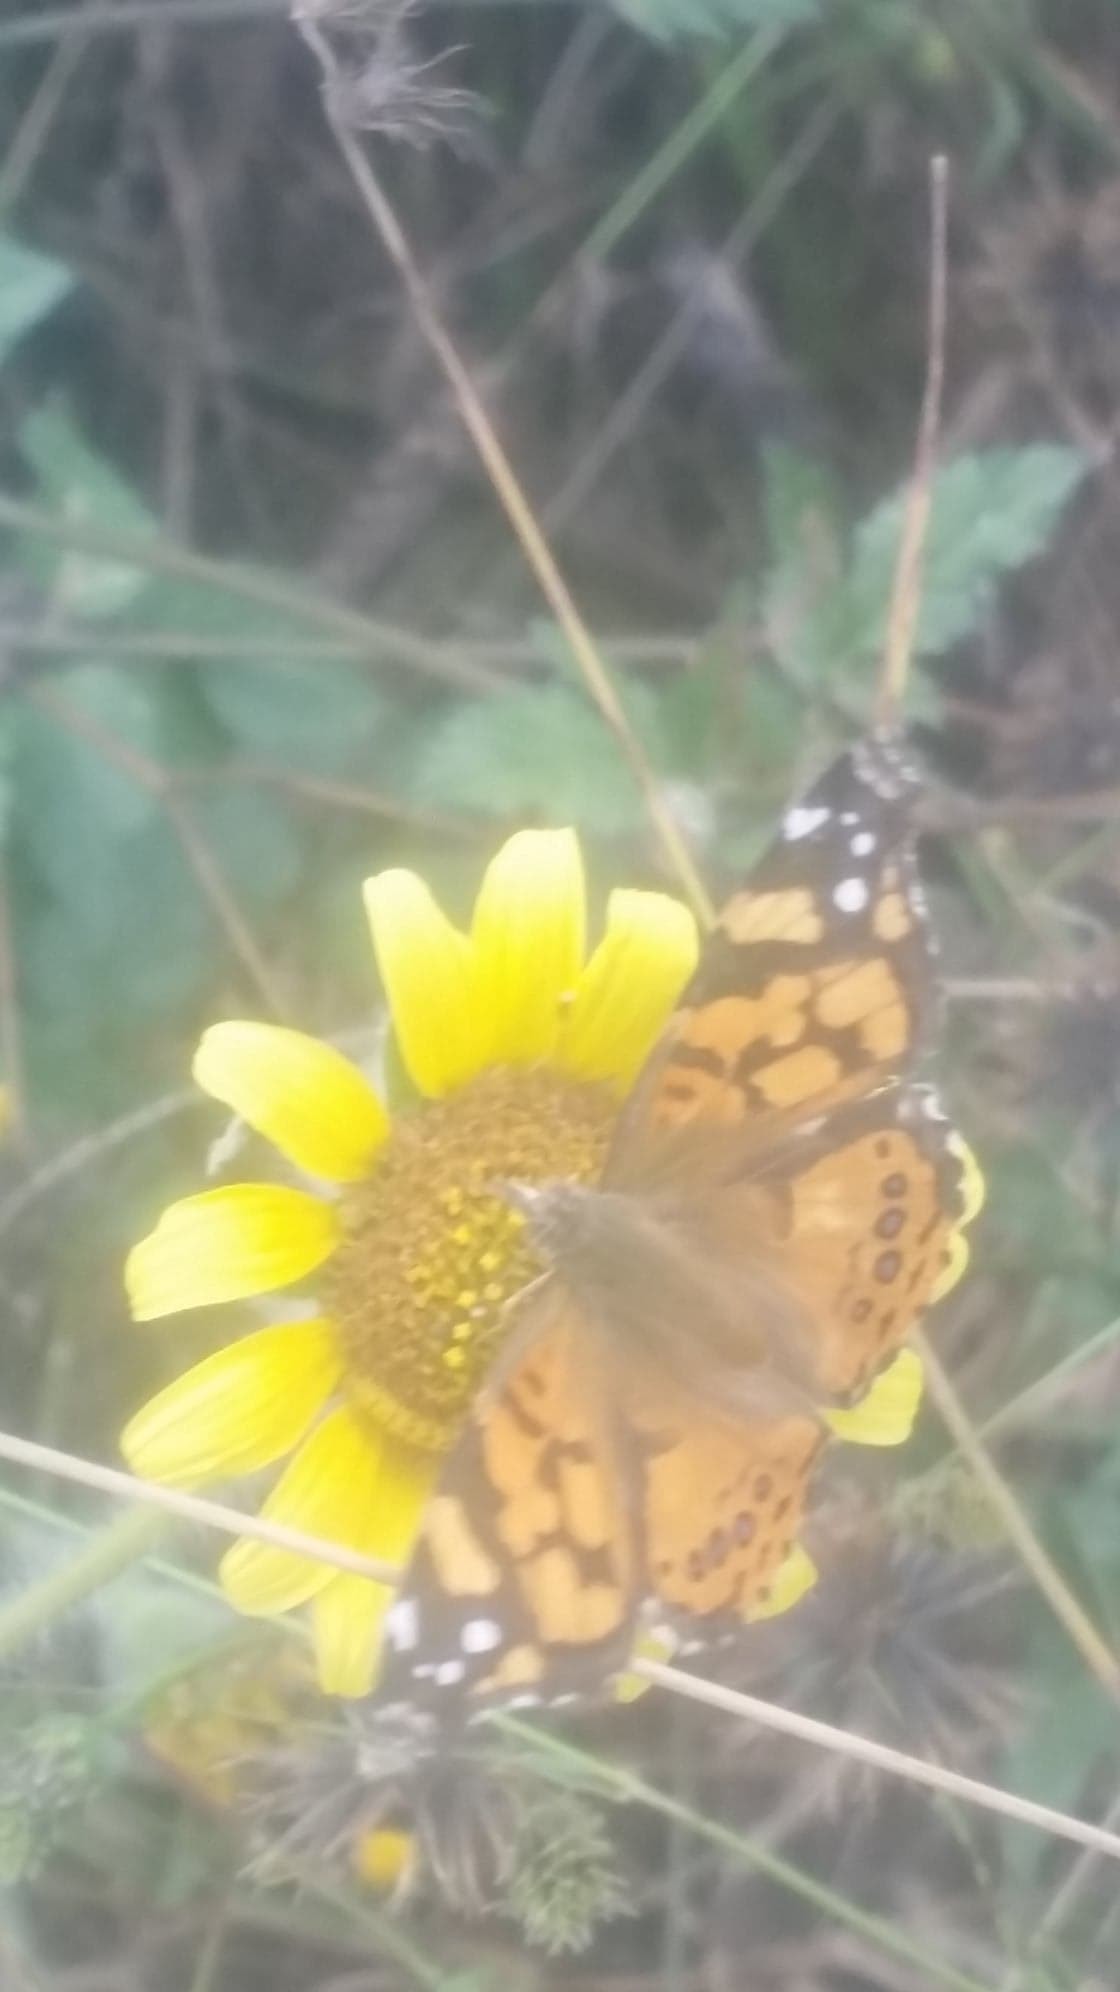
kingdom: Animalia
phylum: Arthropoda
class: Insecta
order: Lepidoptera
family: Nymphalidae
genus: Vanessa
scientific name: Vanessa annabella
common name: West coast lady
